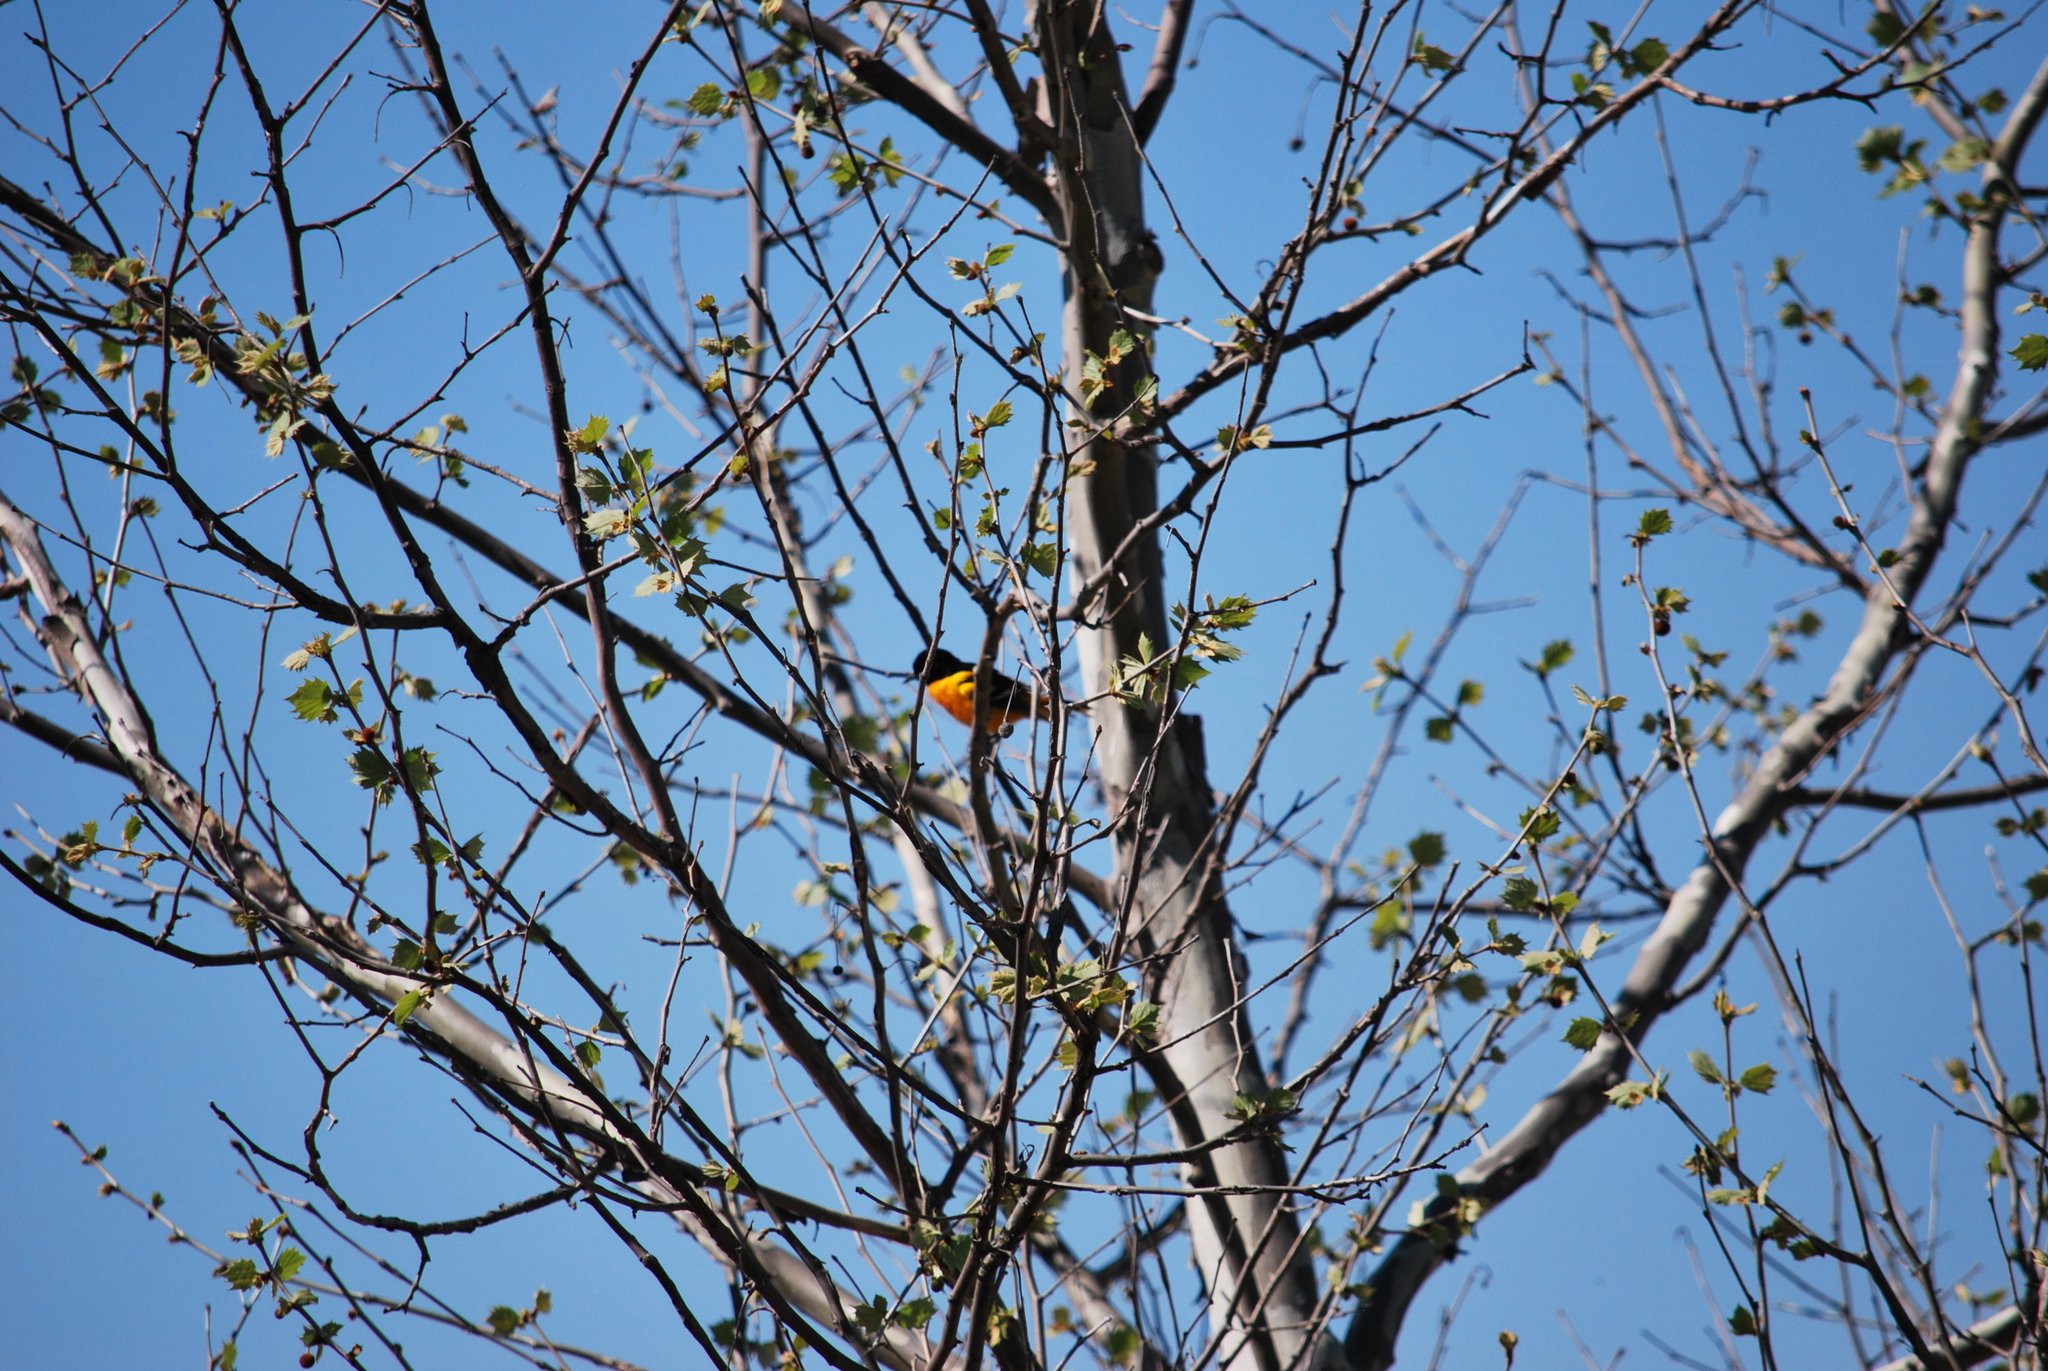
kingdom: Animalia
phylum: Chordata
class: Aves
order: Passeriformes
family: Icteridae
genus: Icterus
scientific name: Icterus galbula
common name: Baltimore oriole
